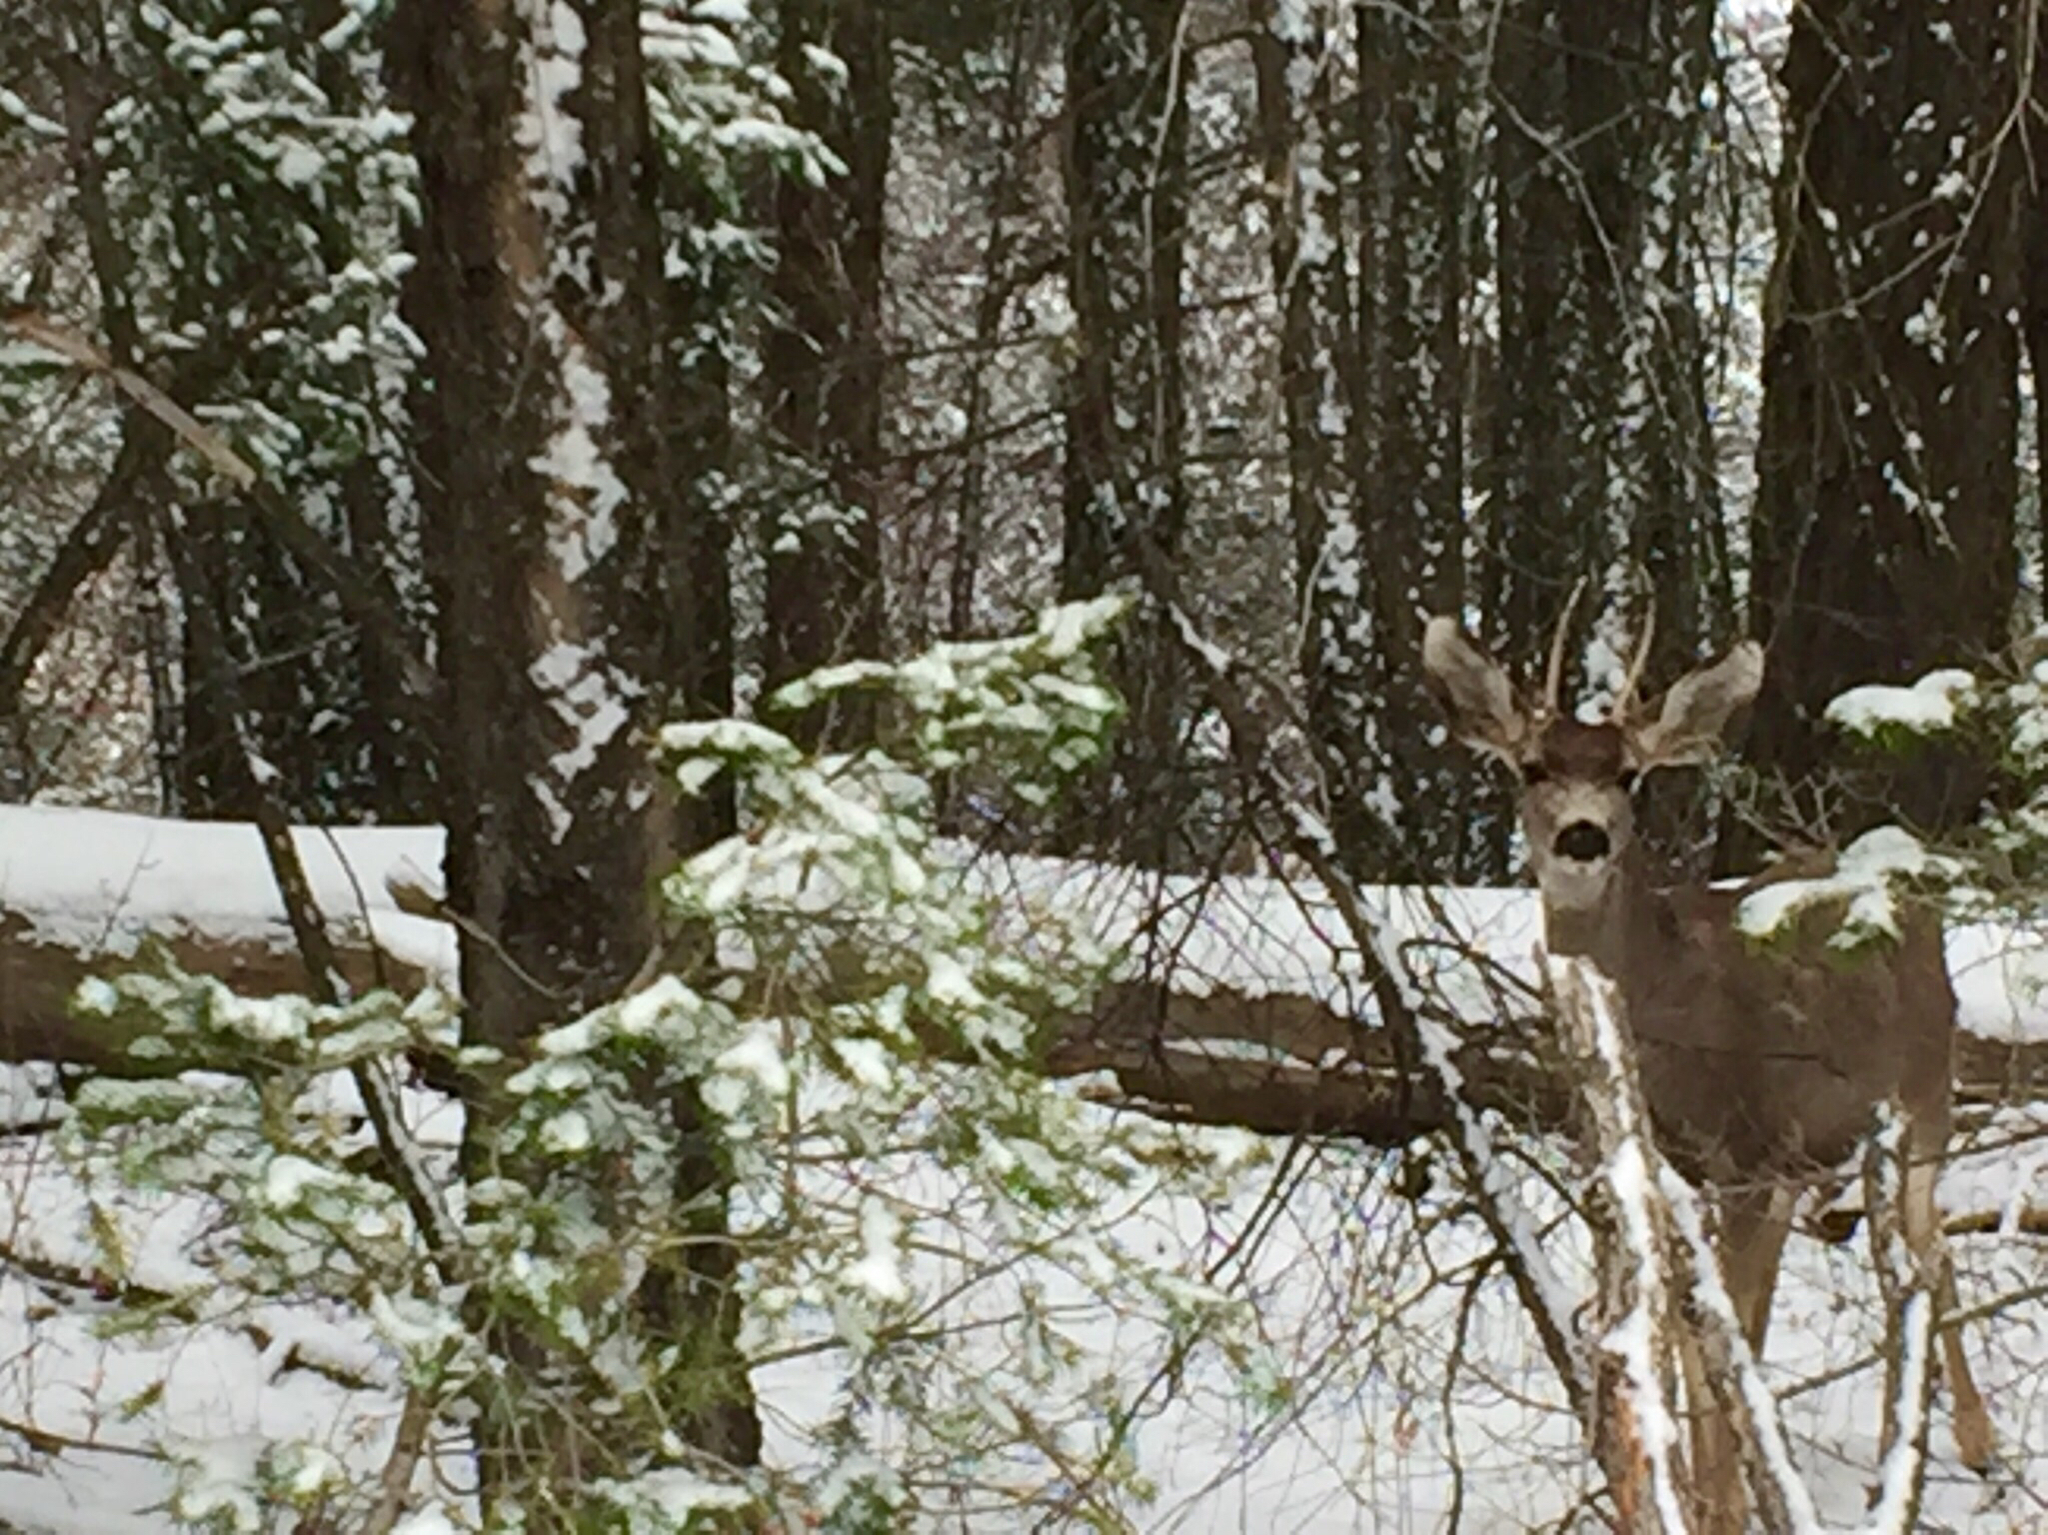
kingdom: Animalia
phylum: Chordata
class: Mammalia
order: Artiodactyla
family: Cervidae
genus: Odocoileus
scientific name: Odocoileus hemionus
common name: Mule deer
